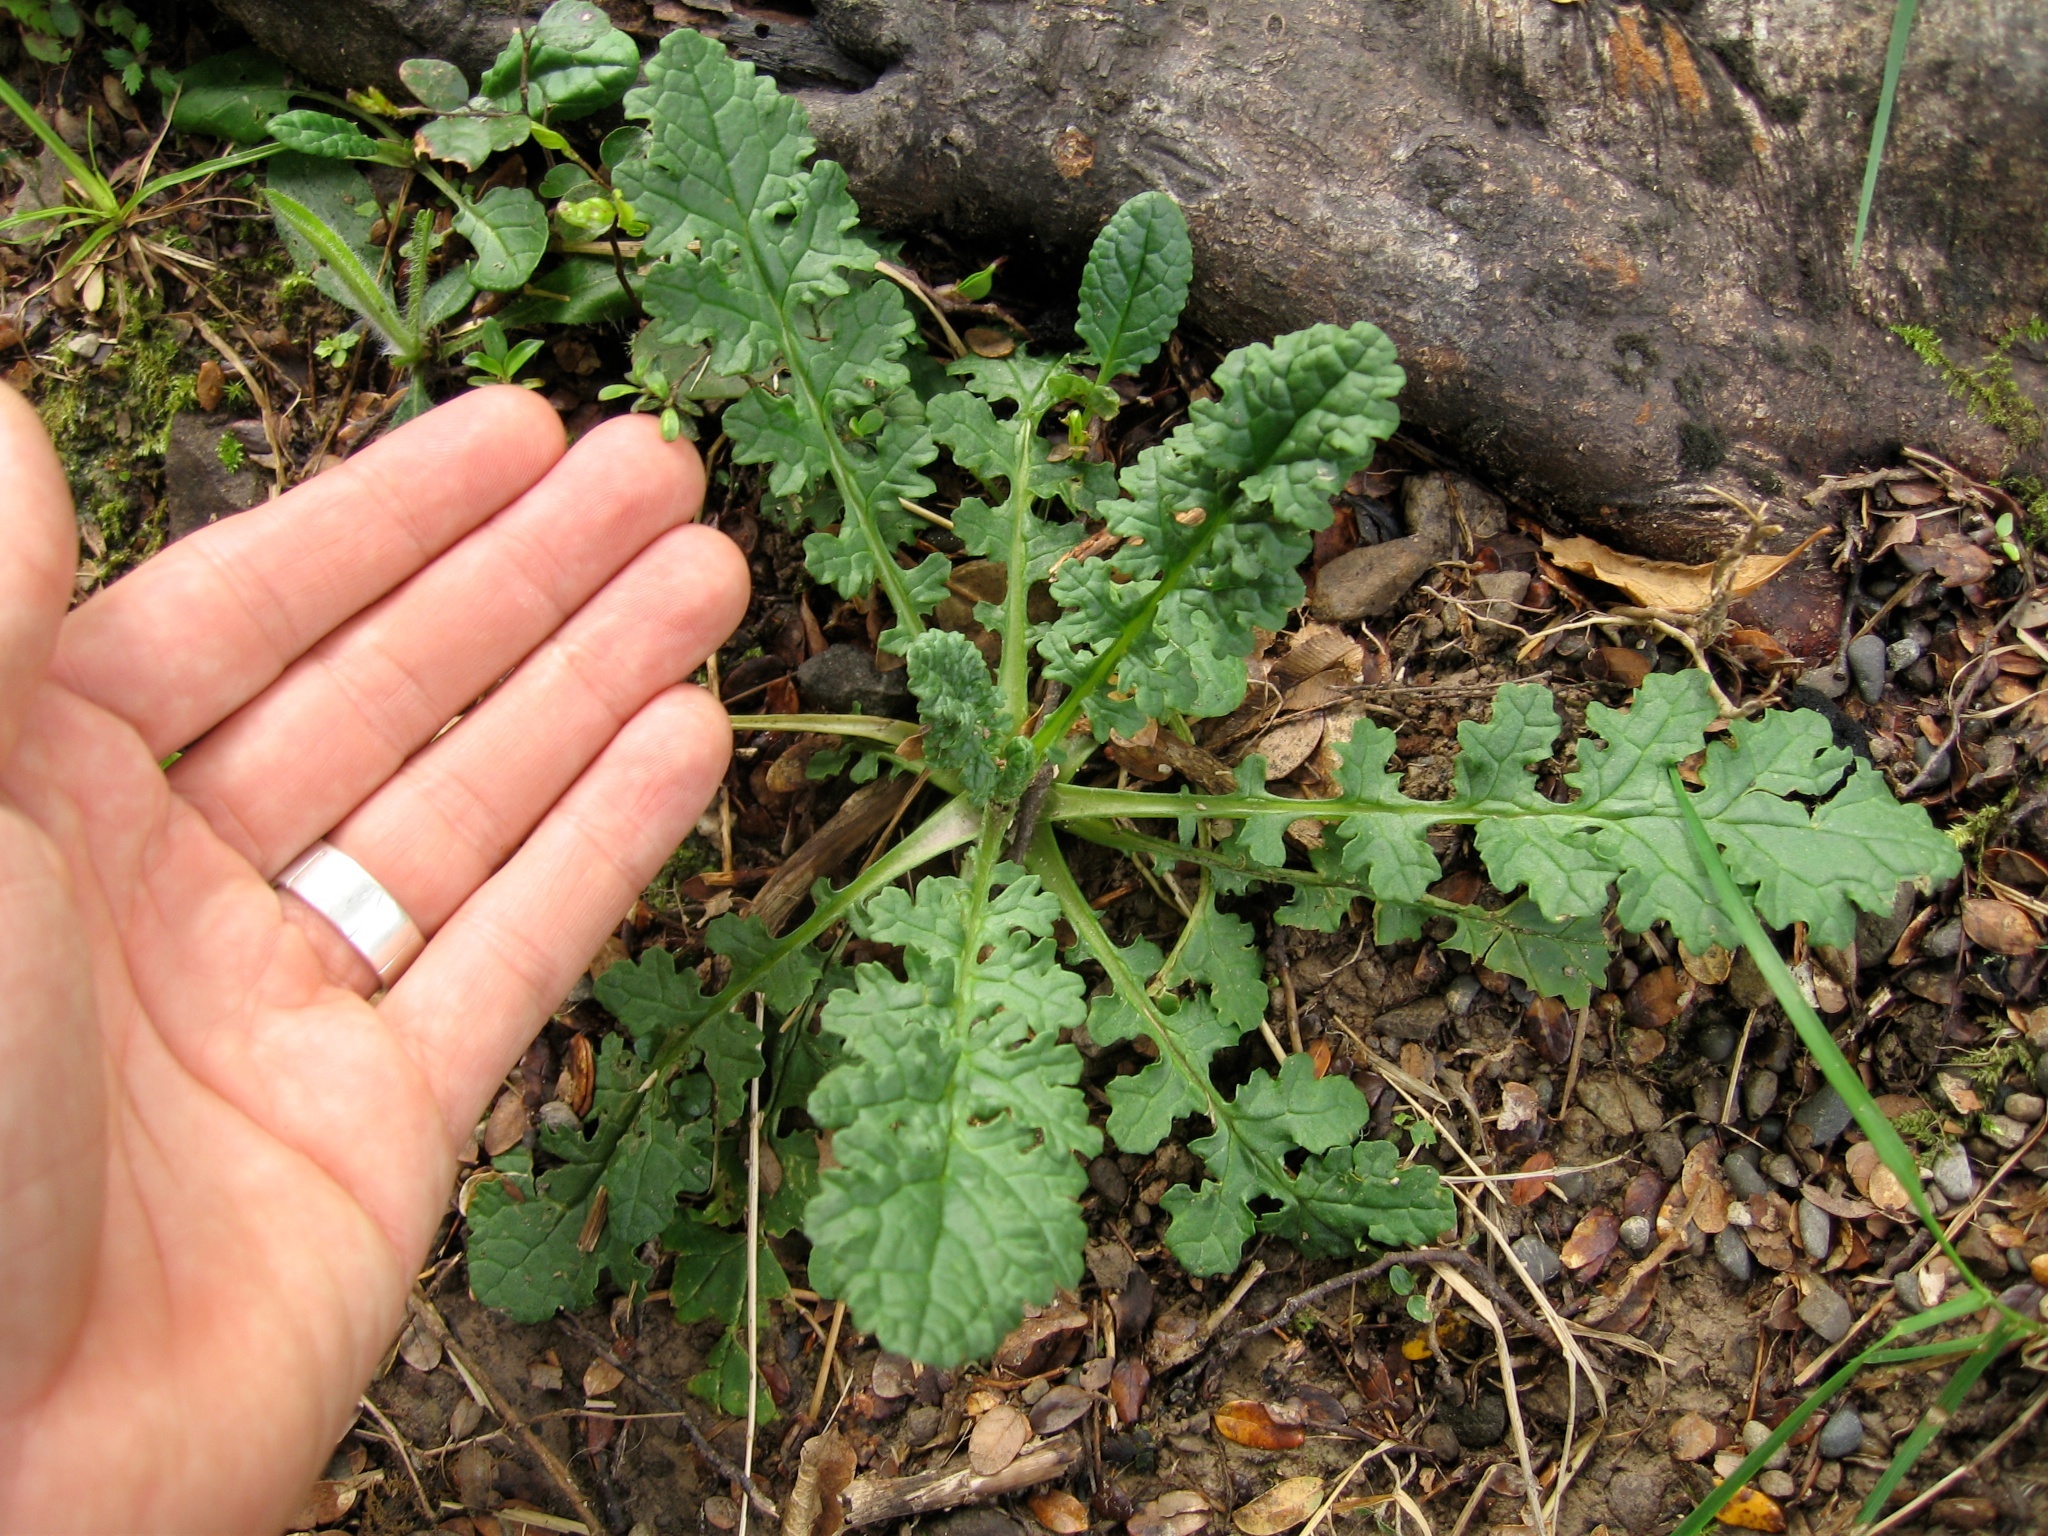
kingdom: Plantae
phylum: Tracheophyta
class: Magnoliopsida
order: Asterales
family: Asteraceae
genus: Jacobaea
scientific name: Jacobaea vulgaris
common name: Stinking willie
